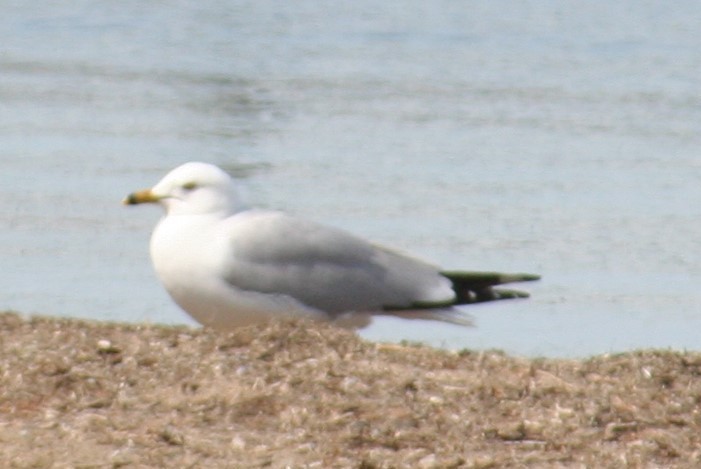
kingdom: Animalia
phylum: Chordata
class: Aves
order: Charadriiformes
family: Laridae
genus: Larus
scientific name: Larus delawarensis
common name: Ring-billed gull
